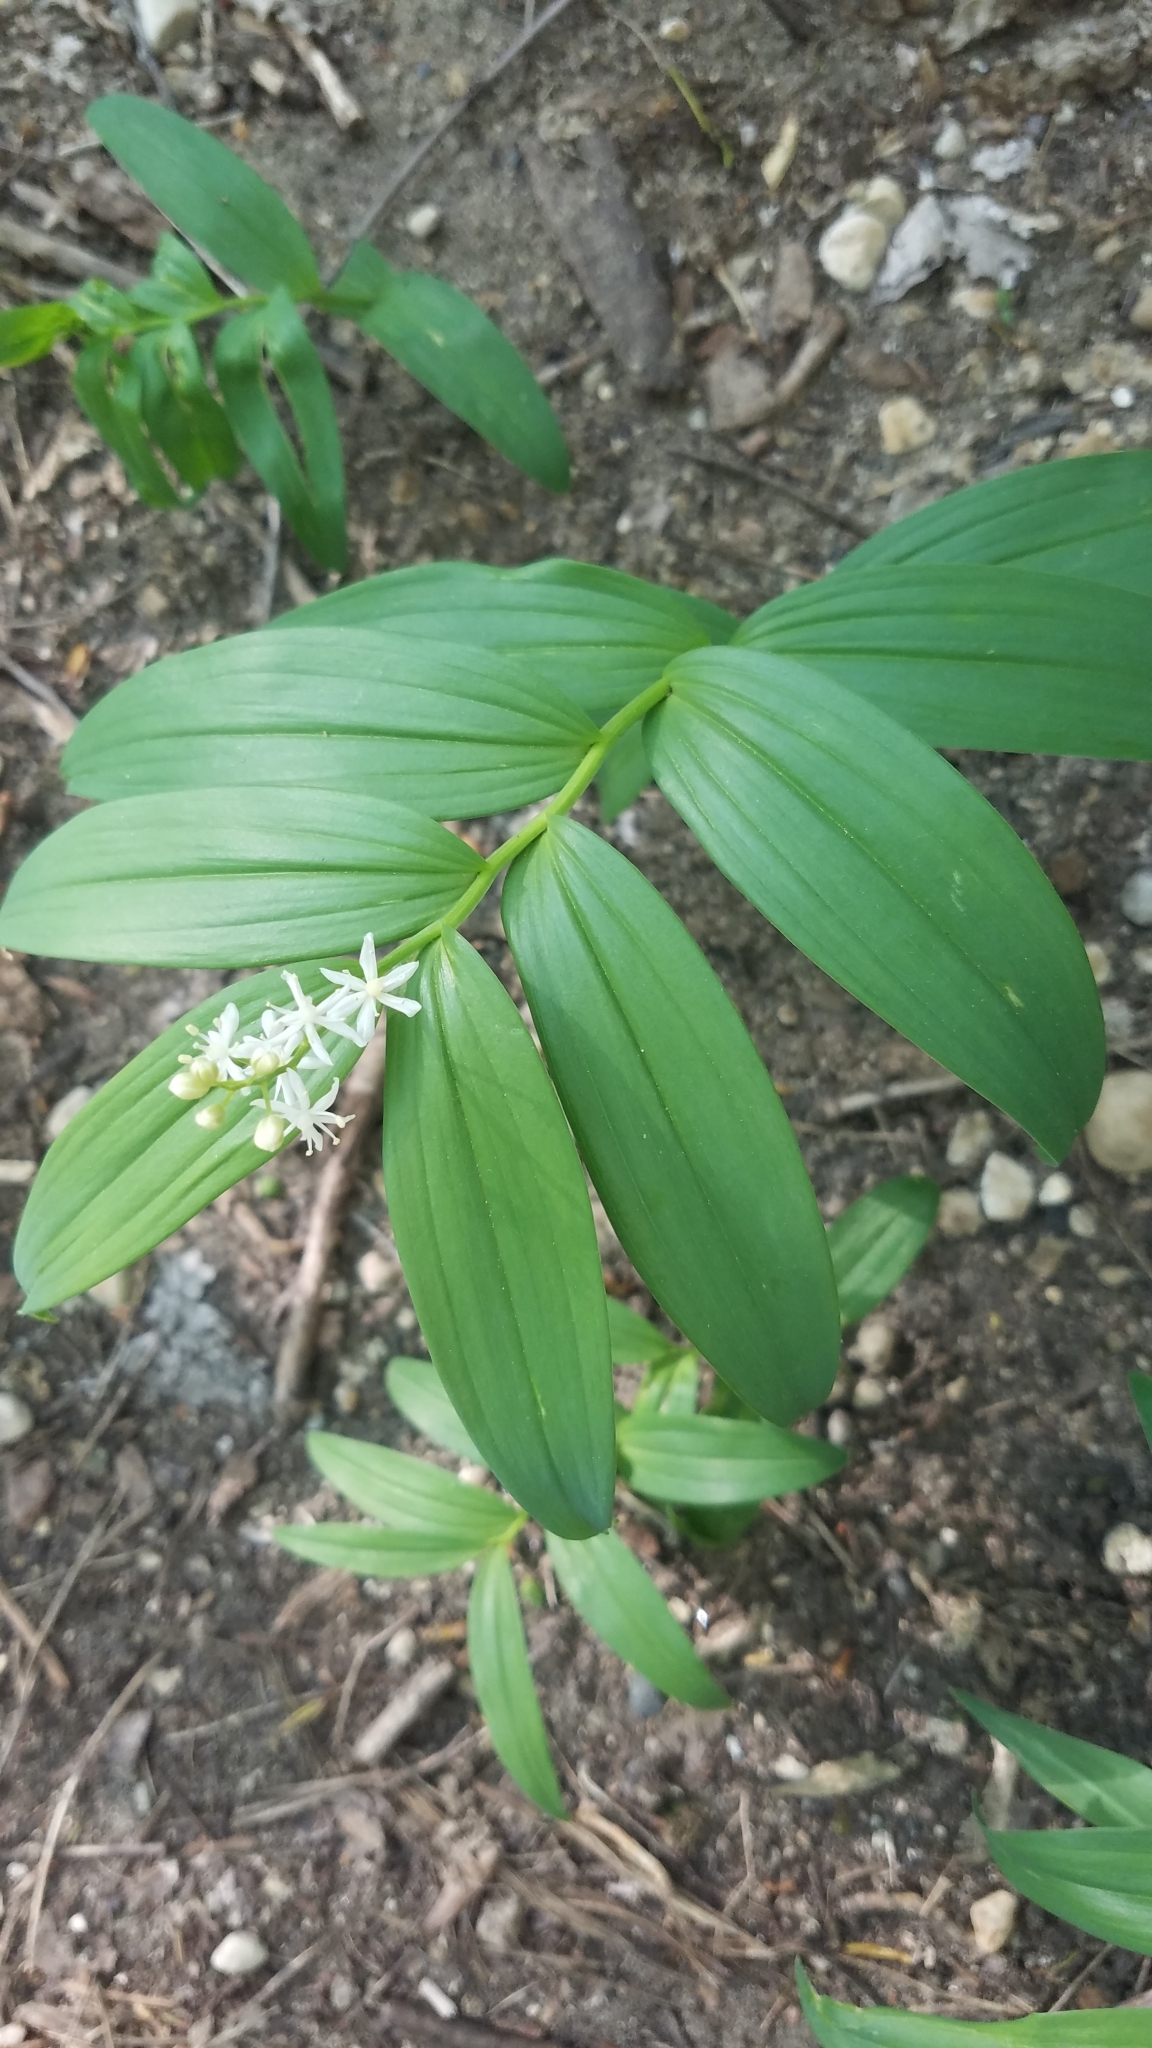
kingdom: Plantae
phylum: Tracheophyta
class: Liliopsida
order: Asparagales
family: Asparagaceae
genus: Maianthemum
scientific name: Maianthemum stellatum
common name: Little false solomon's seal
